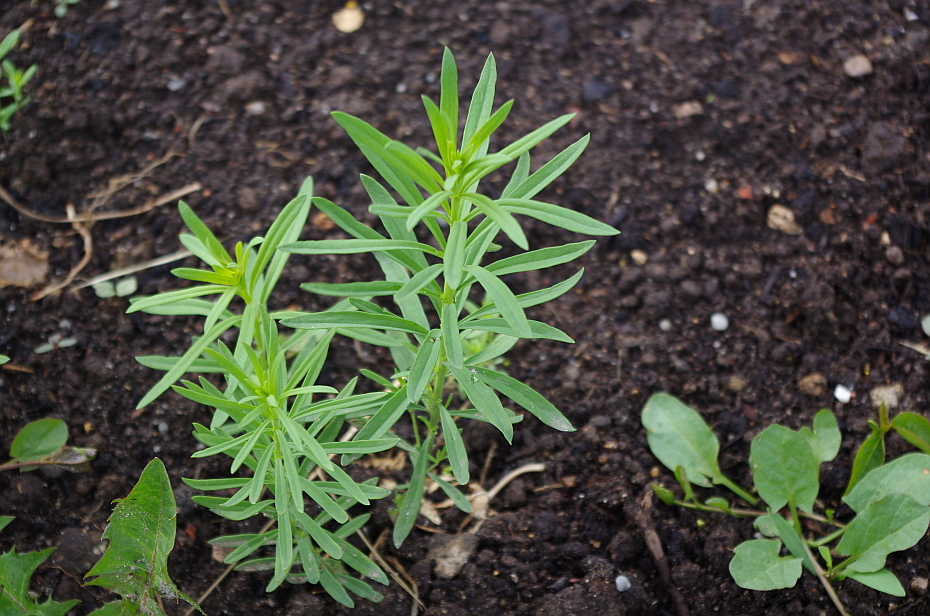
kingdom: Plantae
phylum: Tracheophyta
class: Magnoliopsida
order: Lamiales
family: Plantaginaceae
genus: Linaria
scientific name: Linaria vulgaris
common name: Butter and eggs
